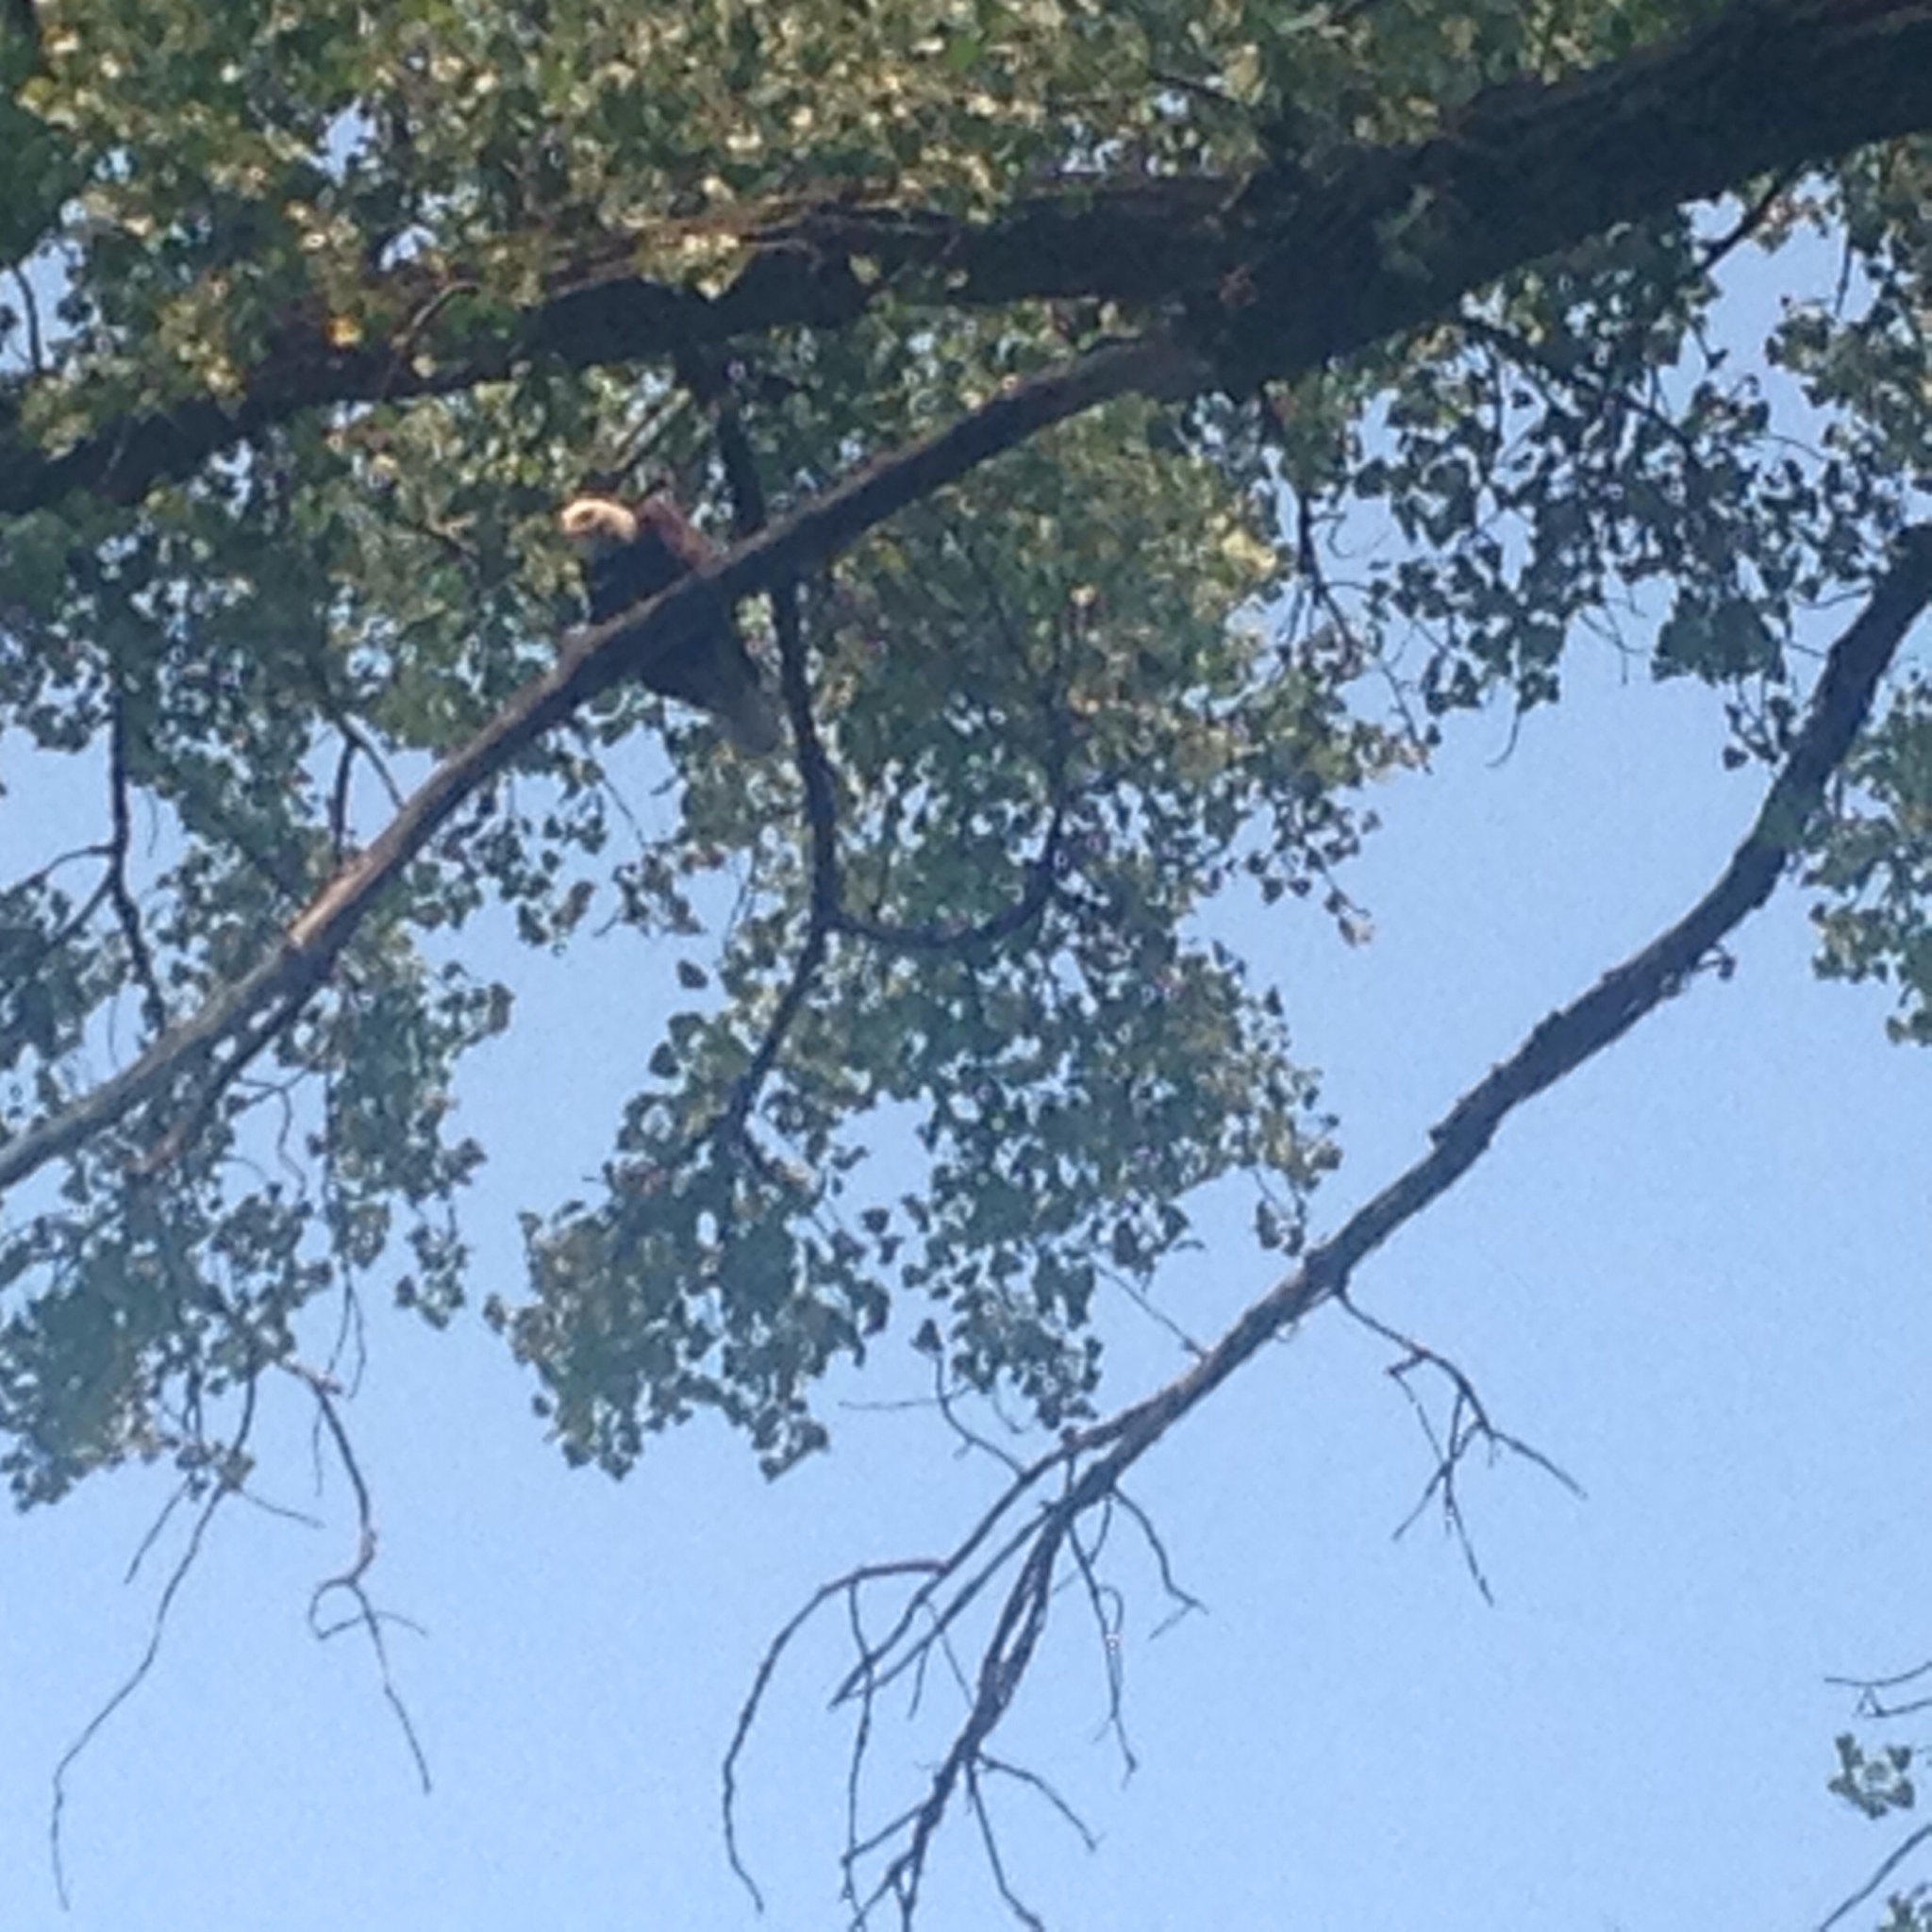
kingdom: Animalia
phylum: Chordata
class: Aves
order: Accipitriformes
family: Accipitridae
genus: Haliaeetus
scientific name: Haliaeetus leucocephalus
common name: Bald eagle
